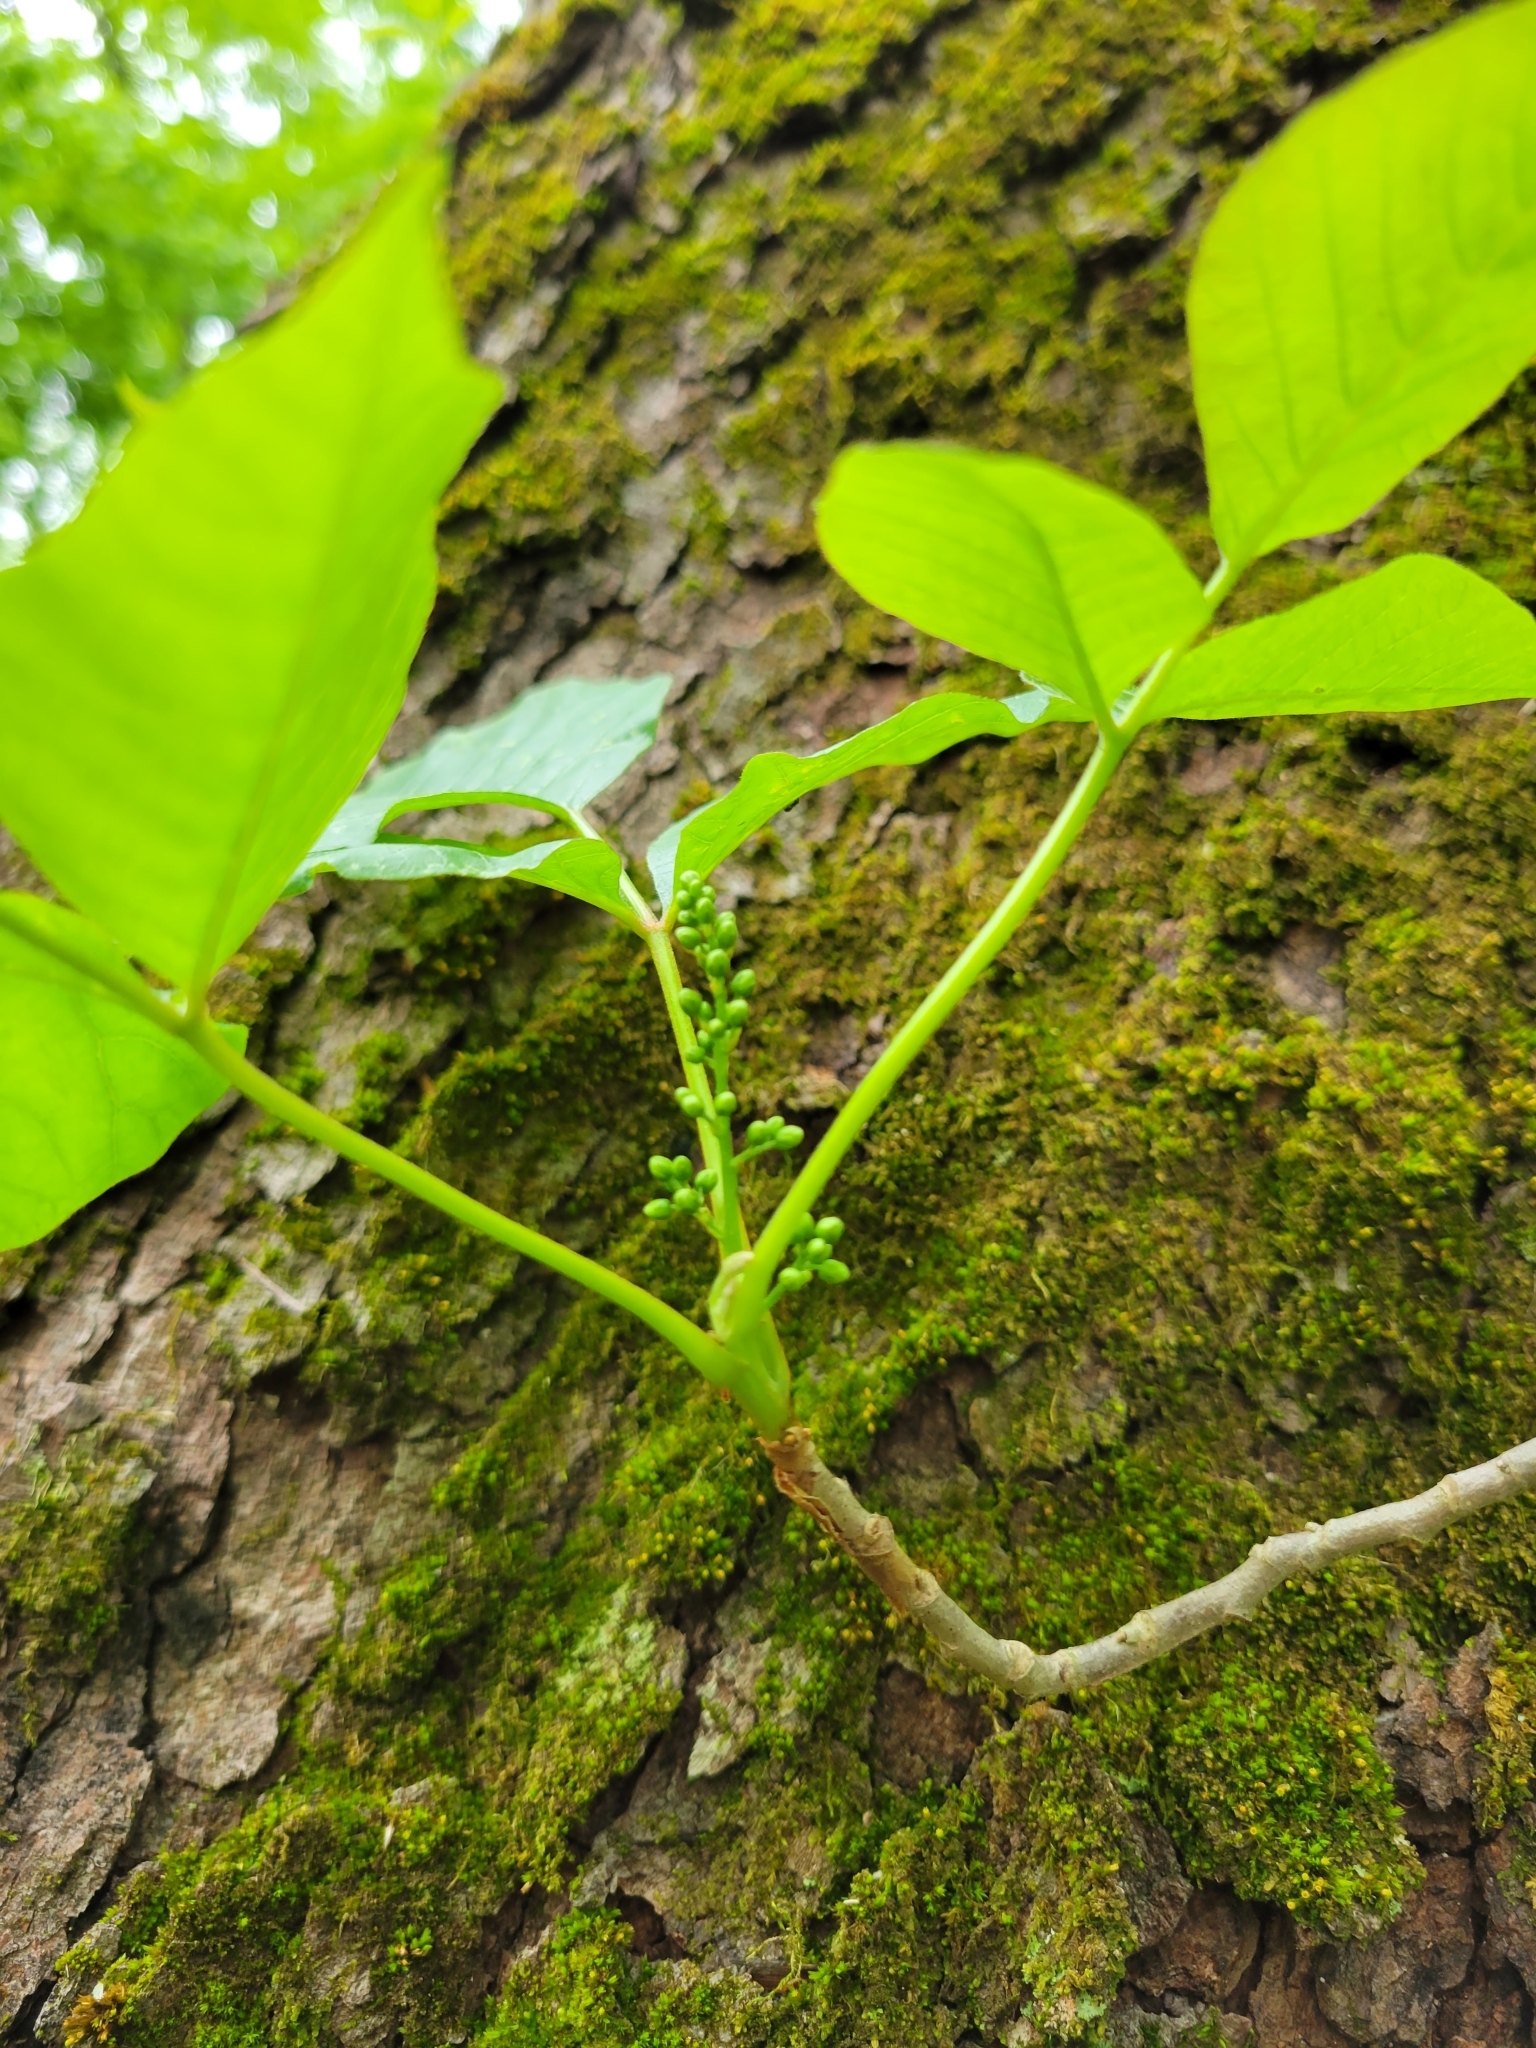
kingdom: Plantae
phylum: Tracheophyta
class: Magnoliopsida
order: Sapindales
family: Anacardiaceae
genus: Toxicodendron
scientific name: Toxicodendron radicans
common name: Poison ivy
